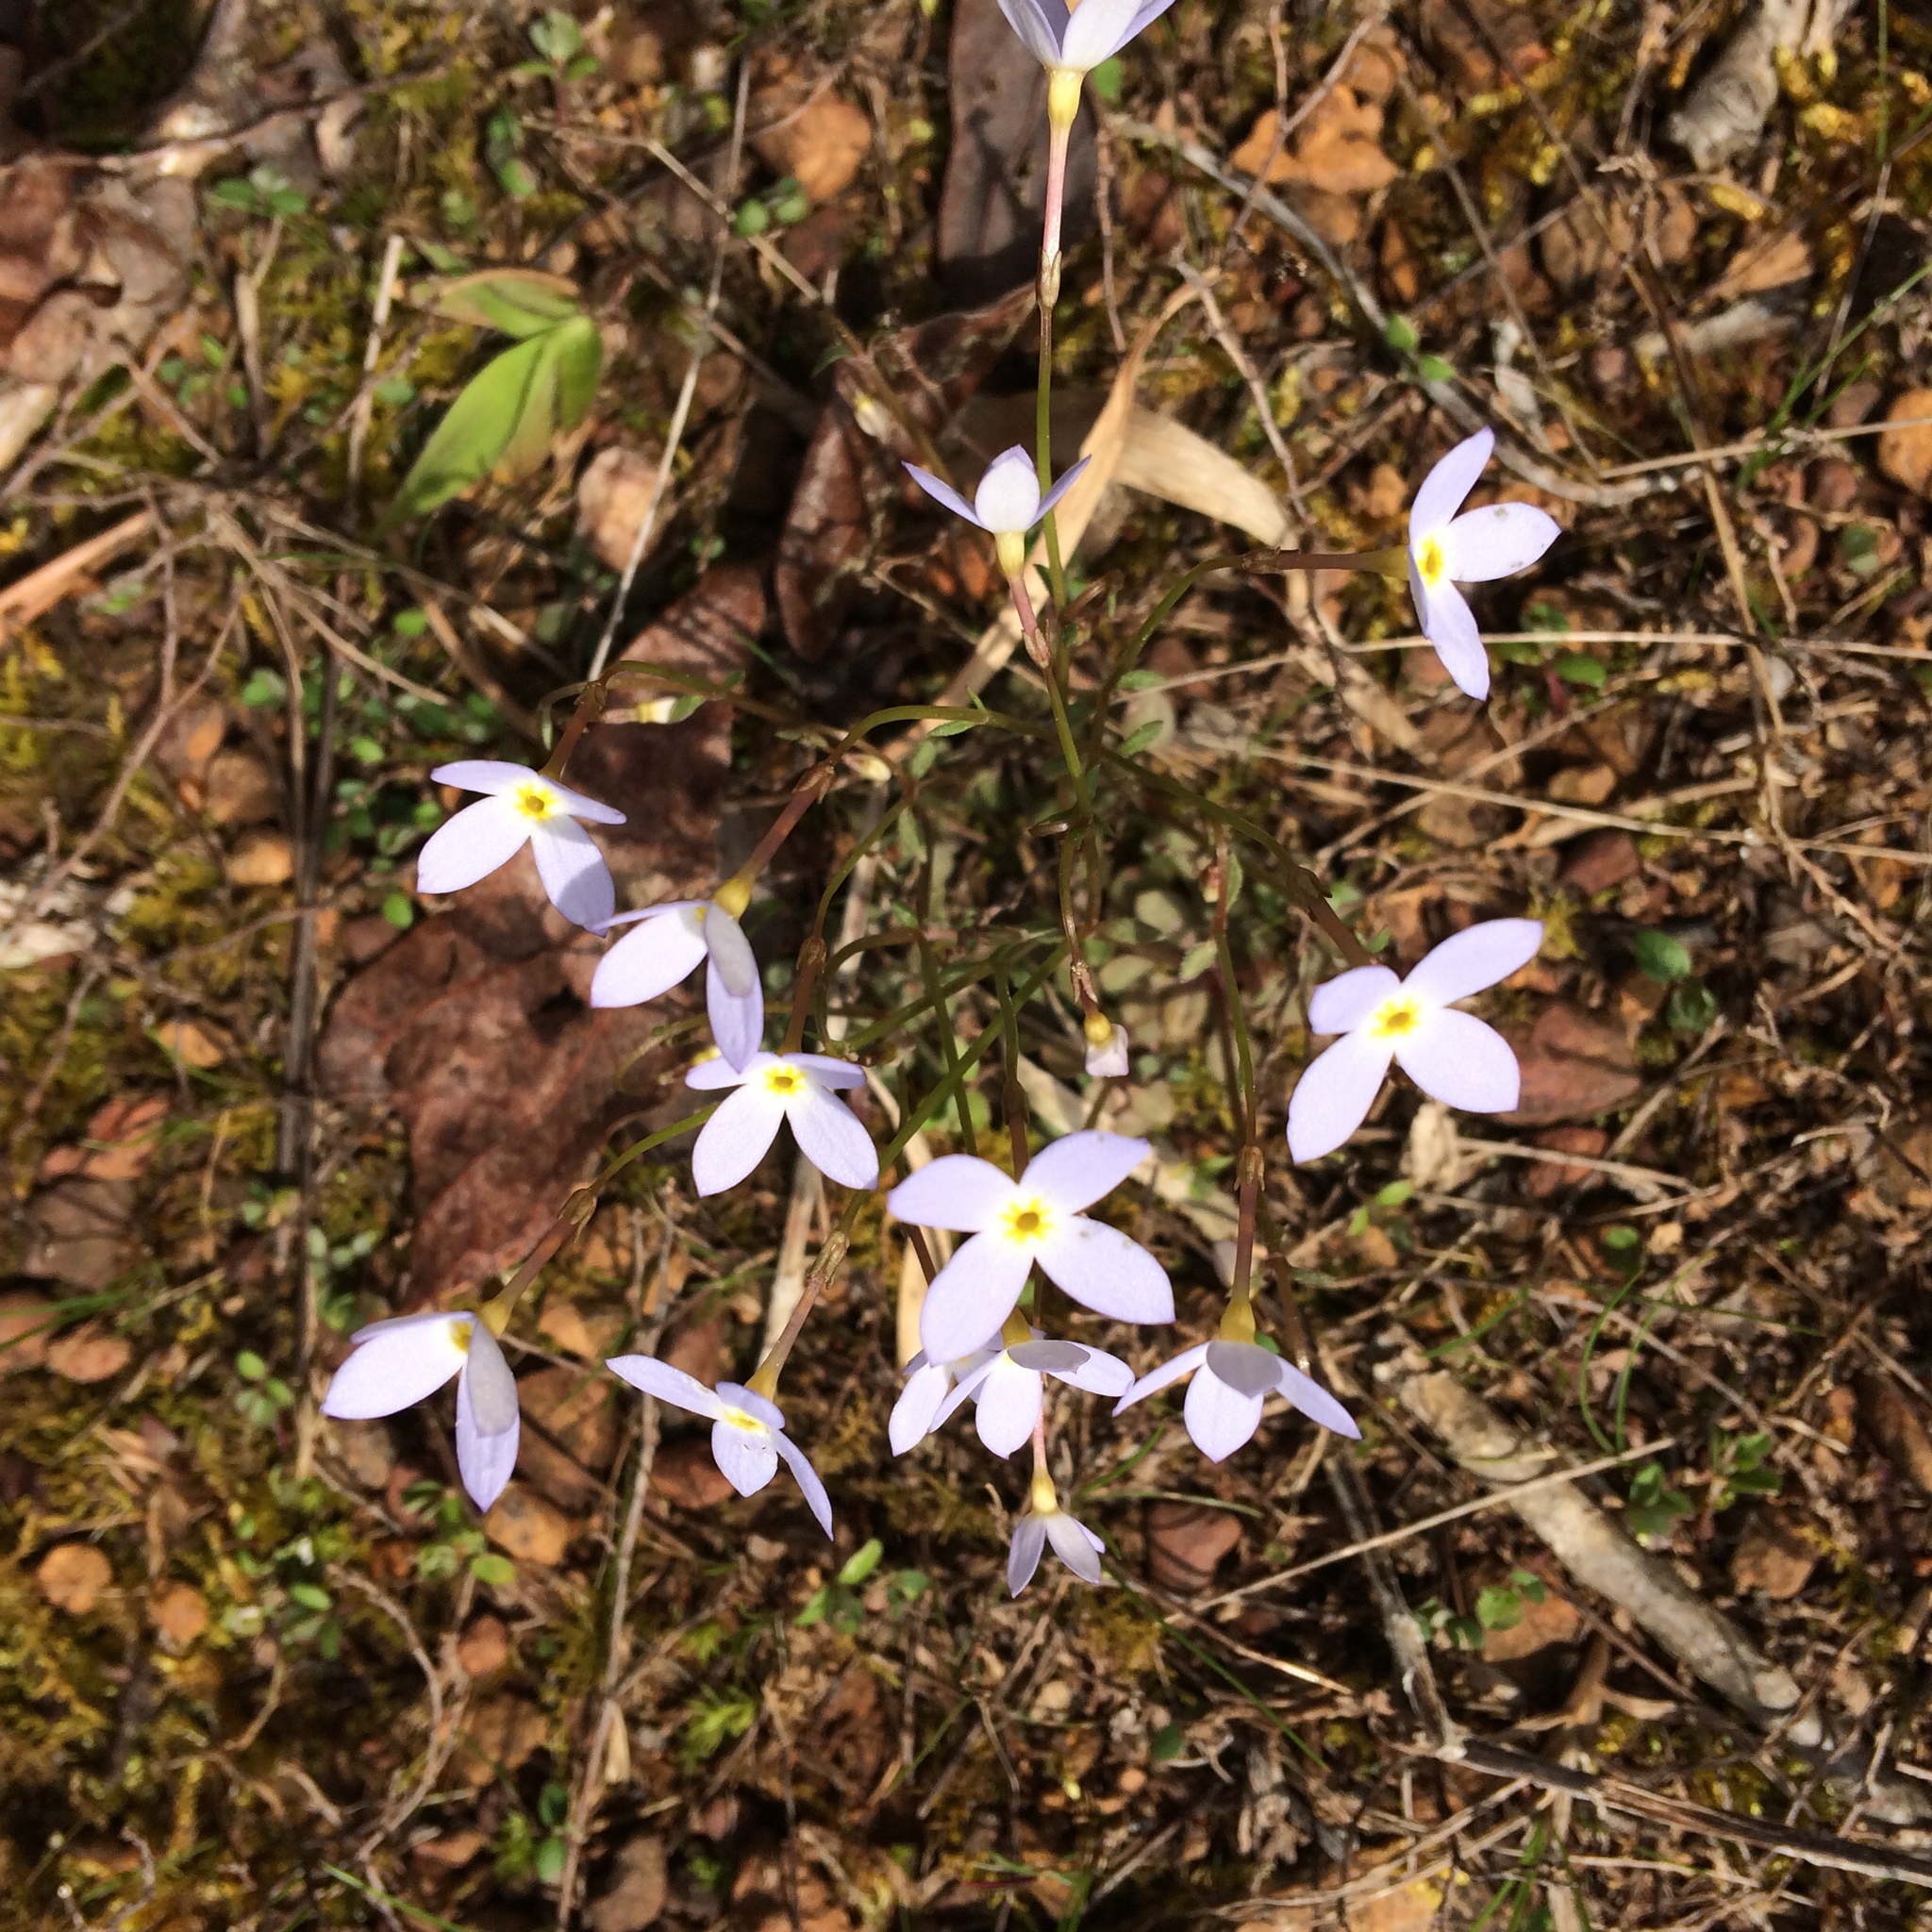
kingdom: Plantae
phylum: Tracheophyta
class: Magnoliopsida
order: Gentianales
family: Rubiaceae
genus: Houstonia
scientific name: Houstonia caerulea
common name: Bluets
